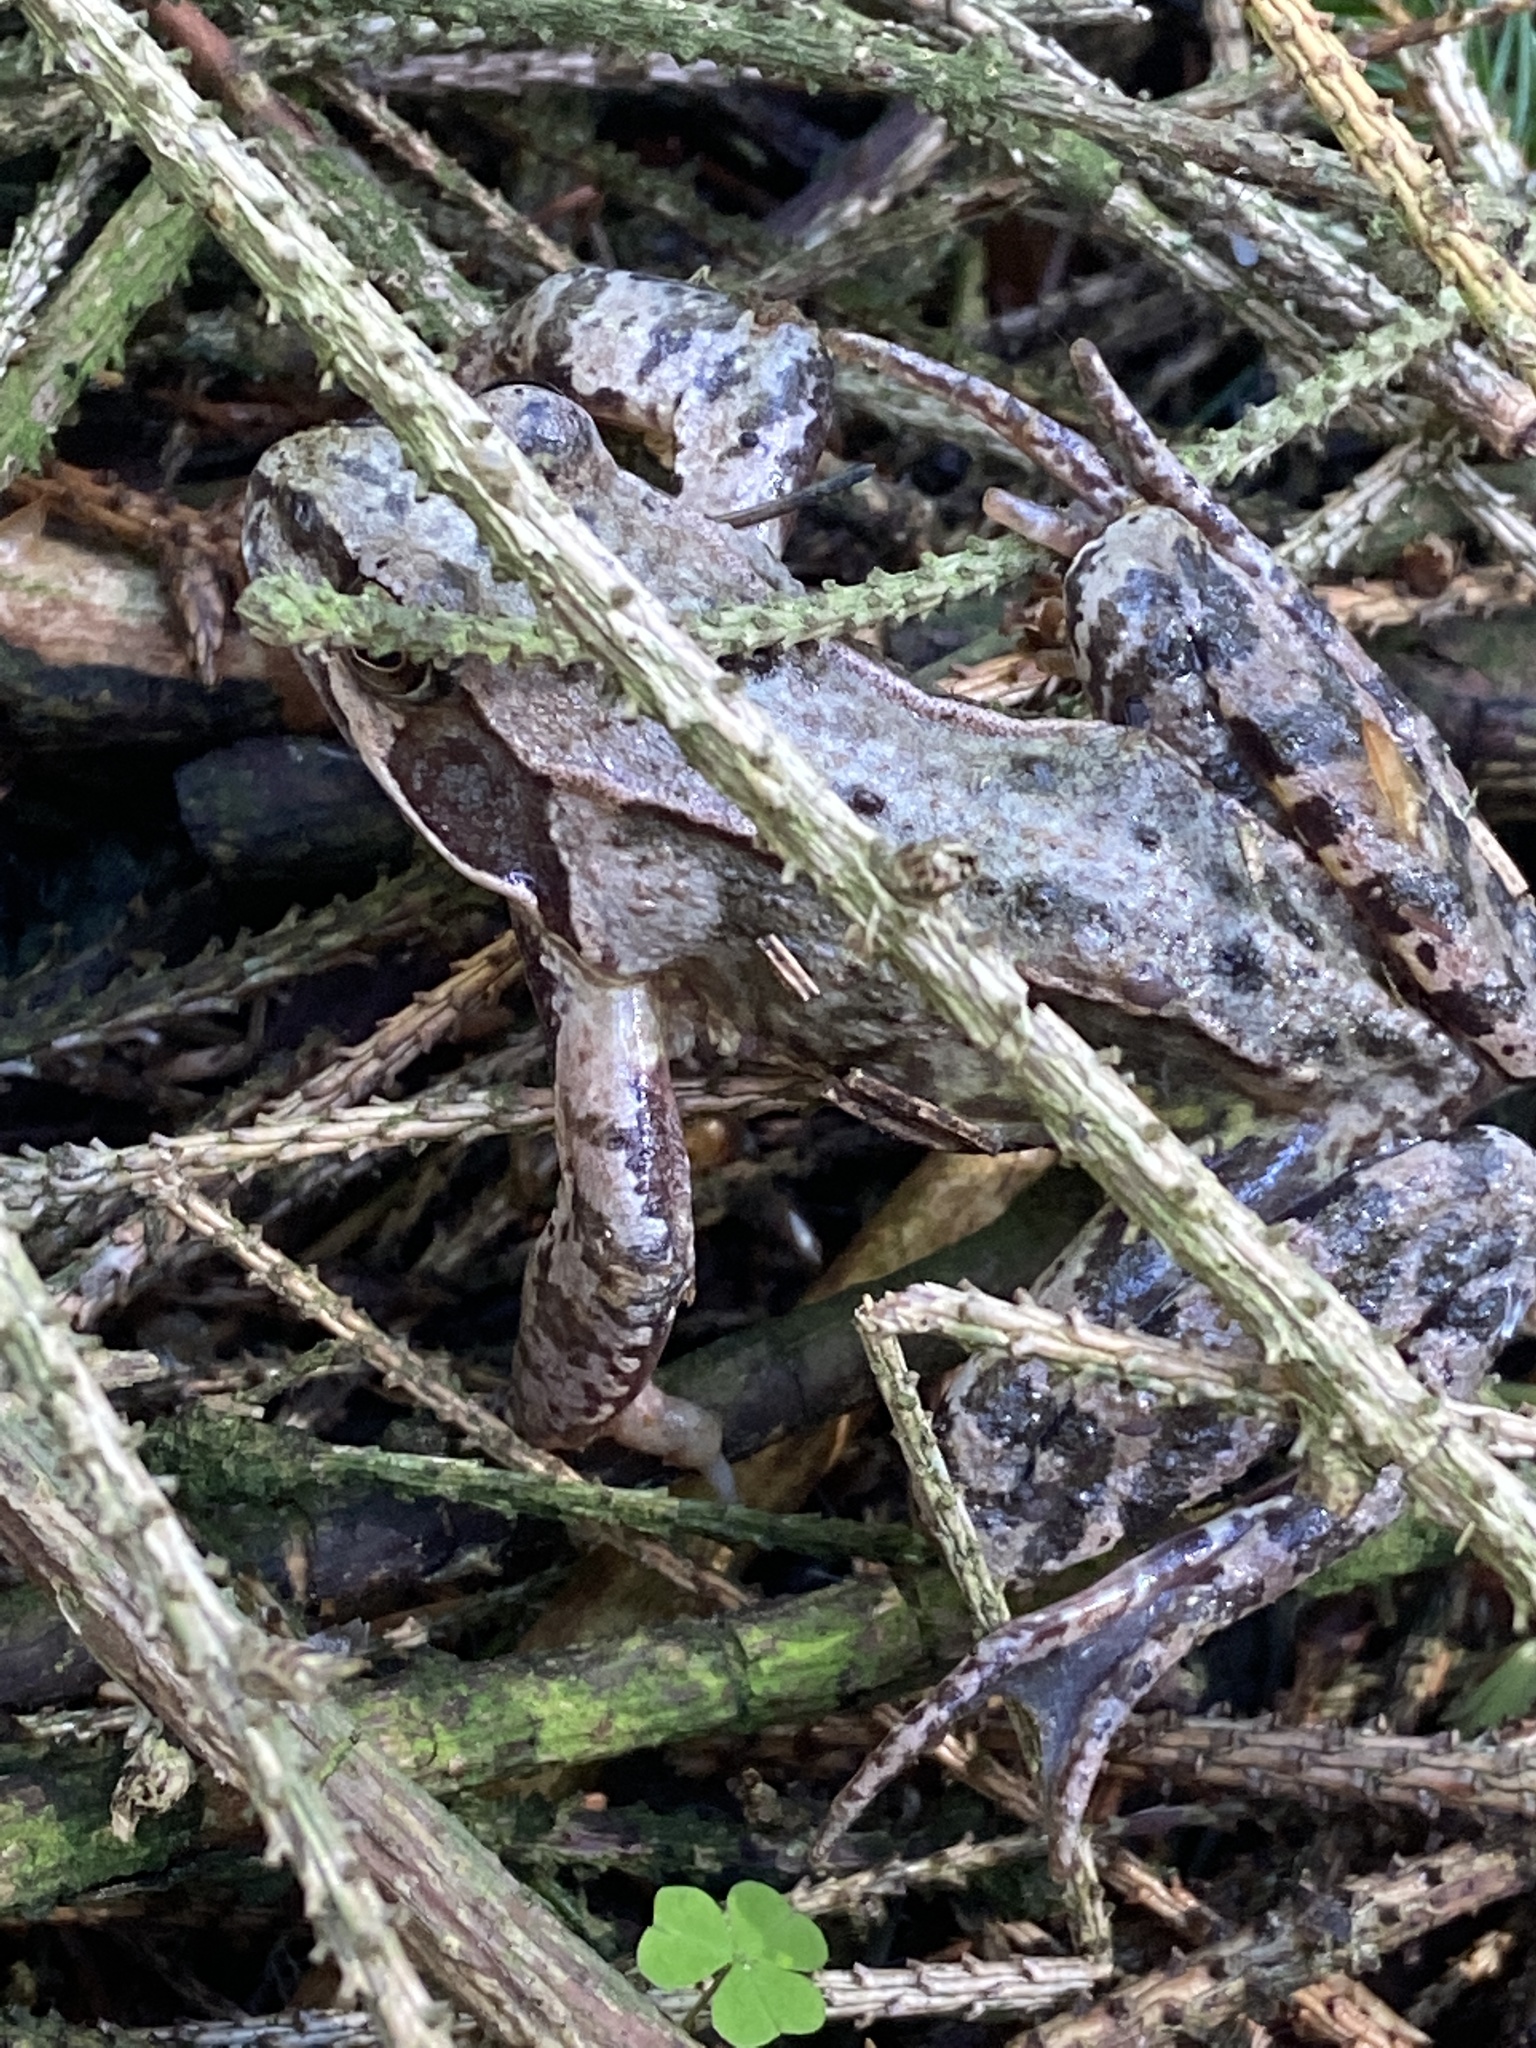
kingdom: Animalia
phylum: Chordata
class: Amphibia
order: Anura
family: Ranidae
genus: Rana
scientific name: Rana temporaria
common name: Common frog
